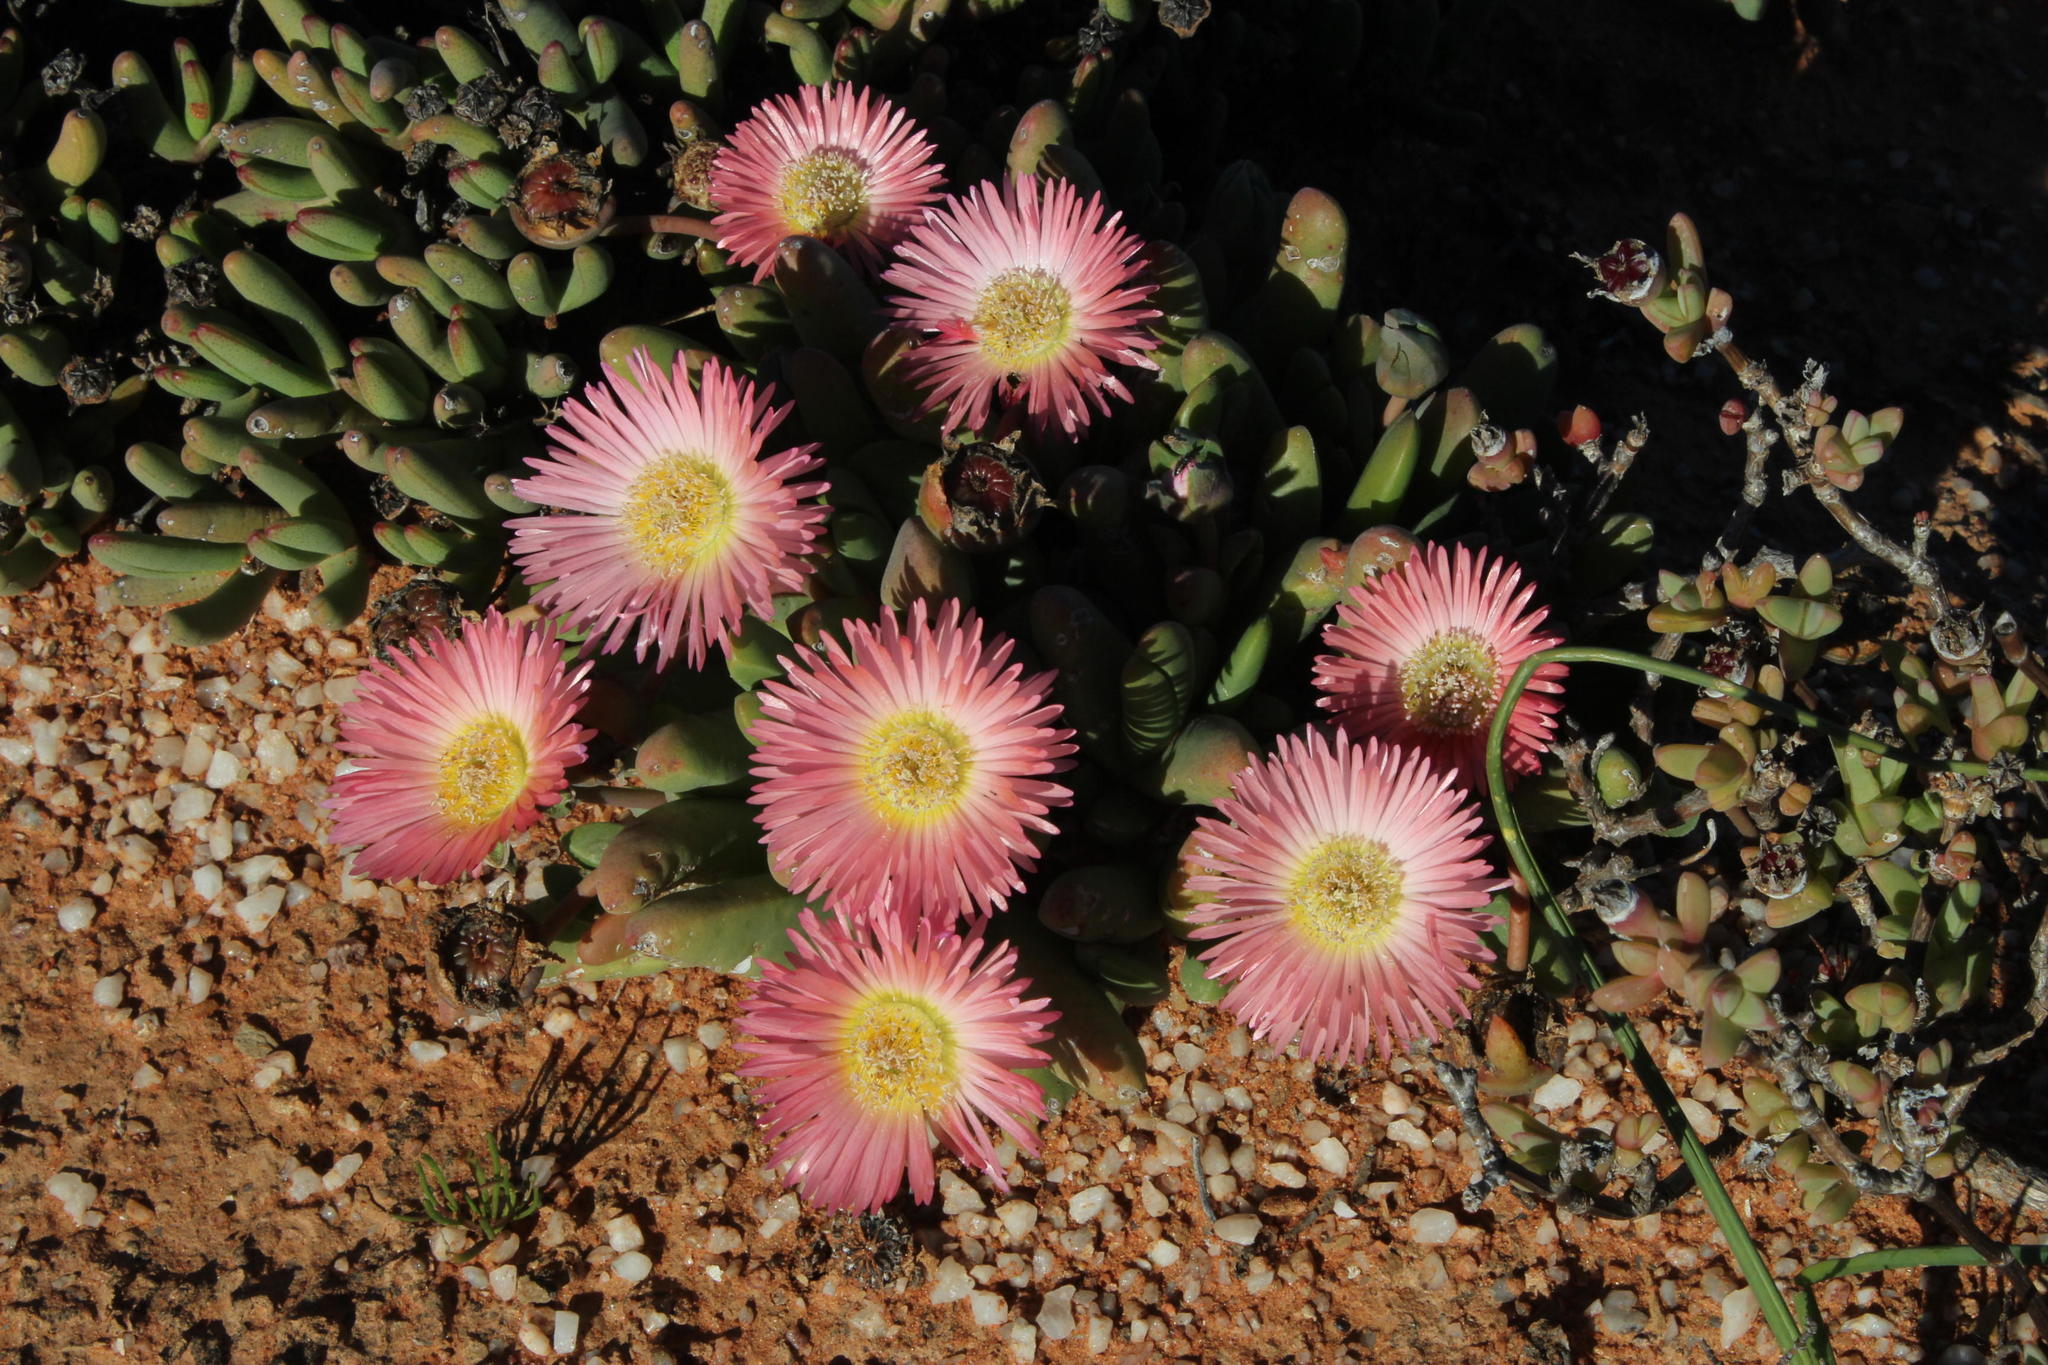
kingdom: Plantae
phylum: Tracheophyta
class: Magnoliopsida
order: Caryophyllales
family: Aizoaceae
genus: Cephalophyllum
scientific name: Cephalophyllum spissum
